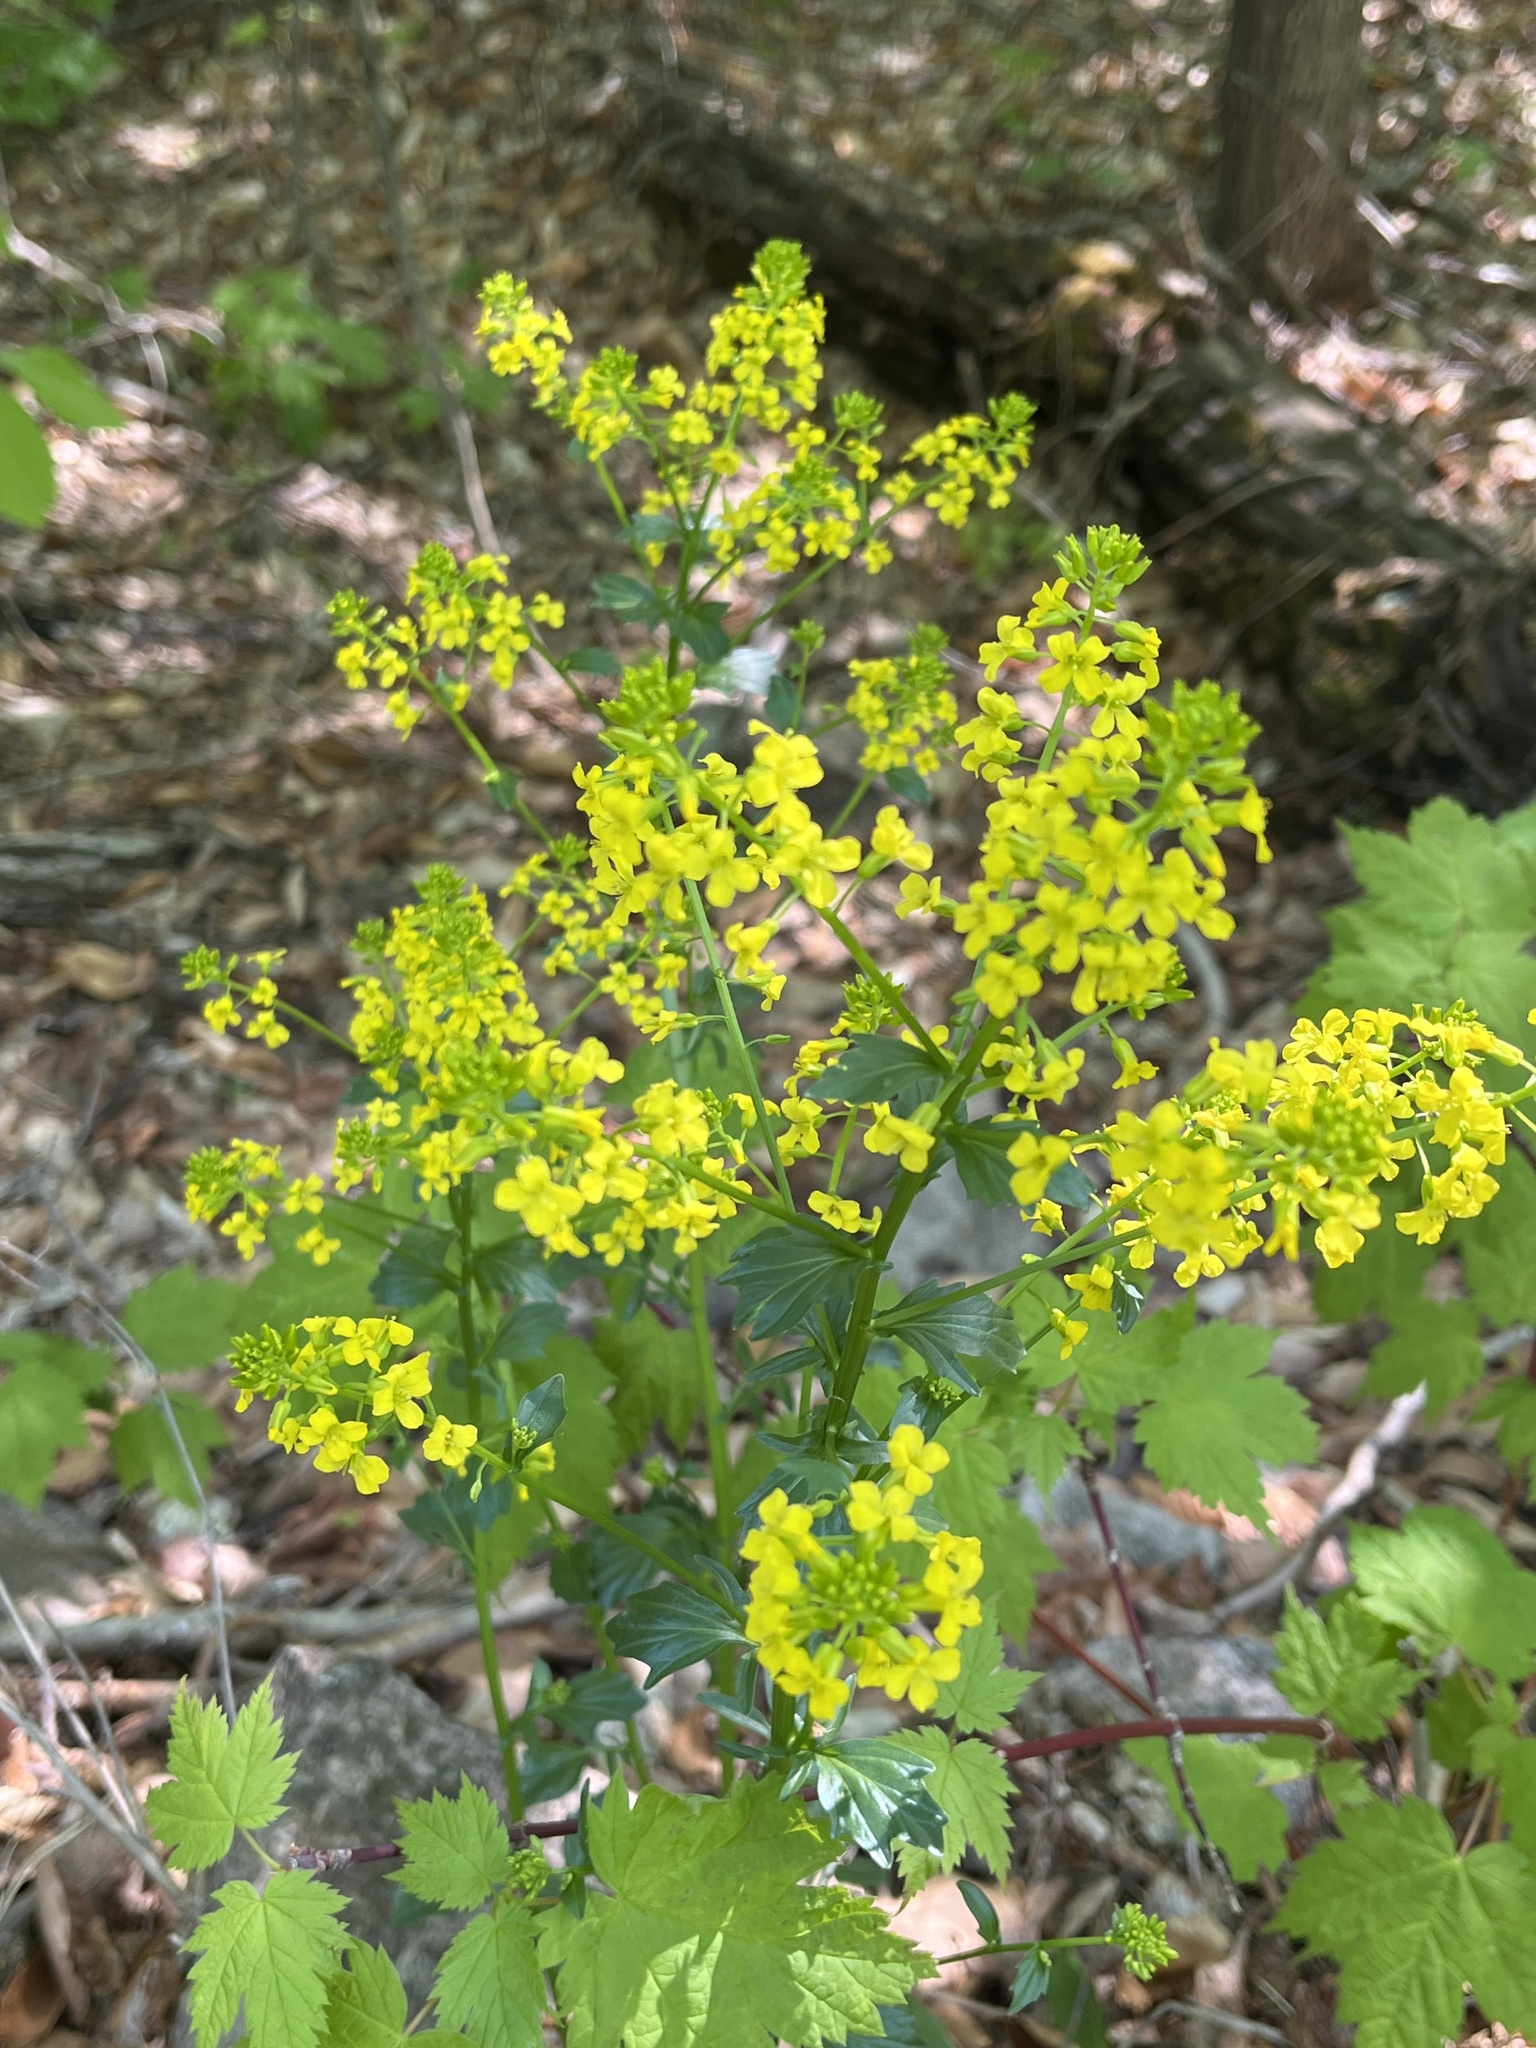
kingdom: Plantae
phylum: Tracheophyta
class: Magnoliopsida
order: Brassicales
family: Brassicaceae
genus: Barbarea
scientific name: Barbarea vulgaris
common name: Cressy-greens
